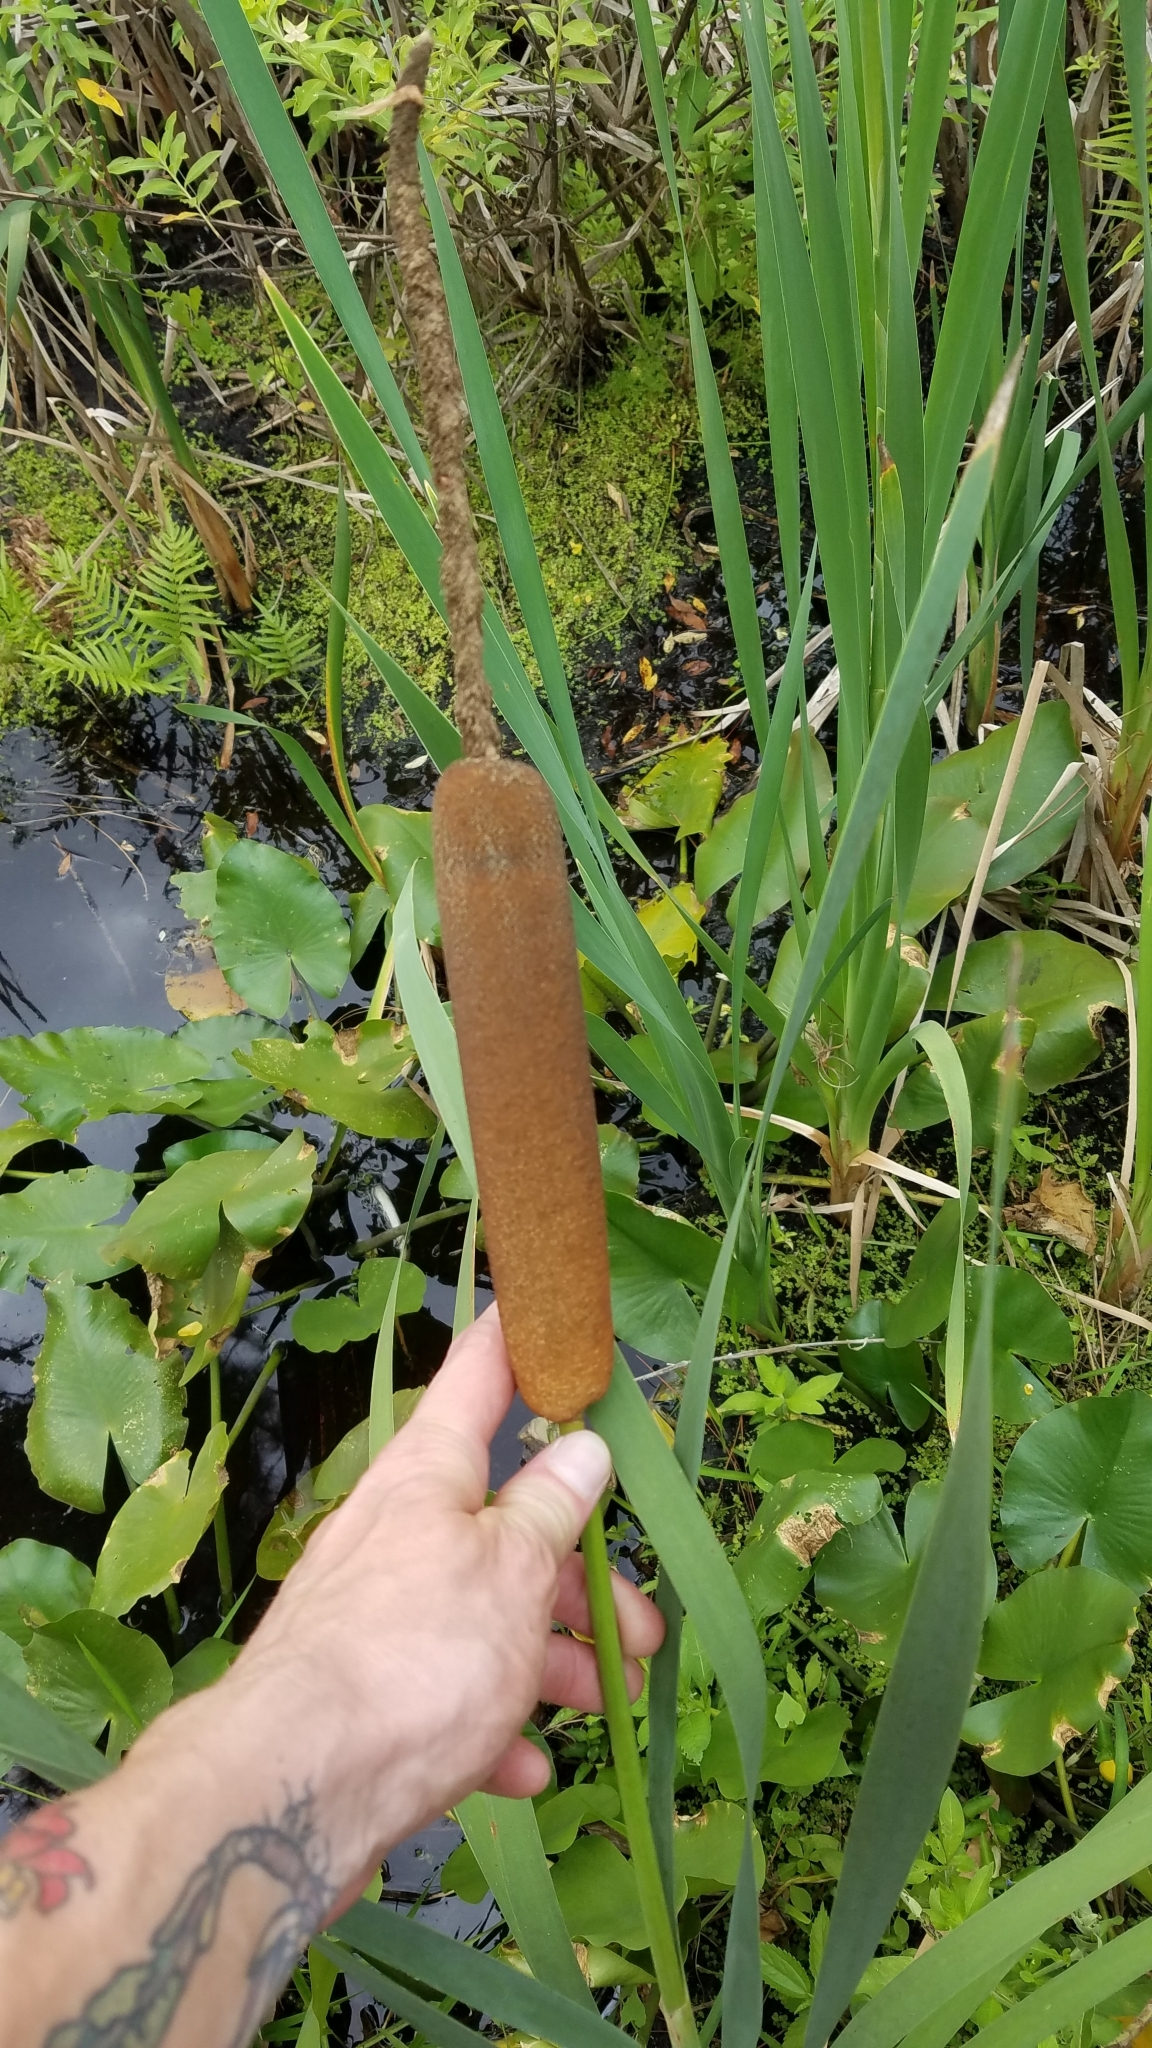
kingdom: Plantae
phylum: Tracheophyta
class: Liliopsida
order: Poales
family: Typhaceae
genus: Typha
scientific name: Typha latifolia
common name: Broadleaf cattail
